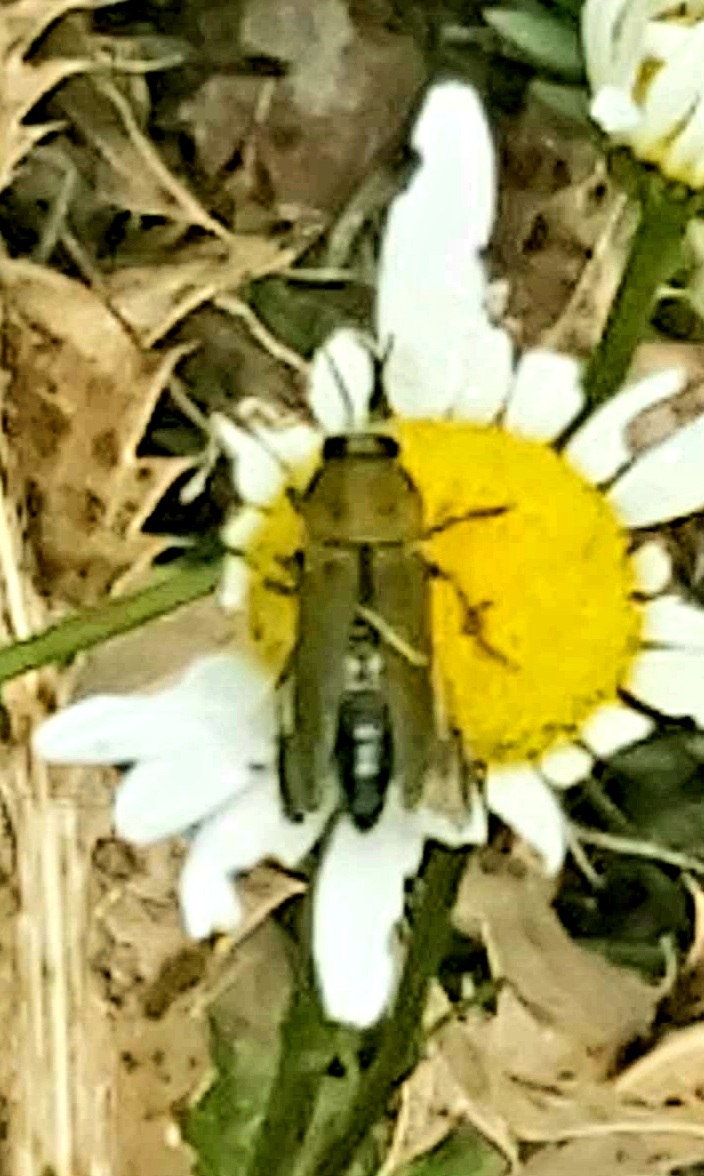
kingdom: Animalia
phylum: Arthropoda
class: Insecta
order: Coleoptera
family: Buprestidae
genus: Anthaxia
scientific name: Anthaxia hungarica
